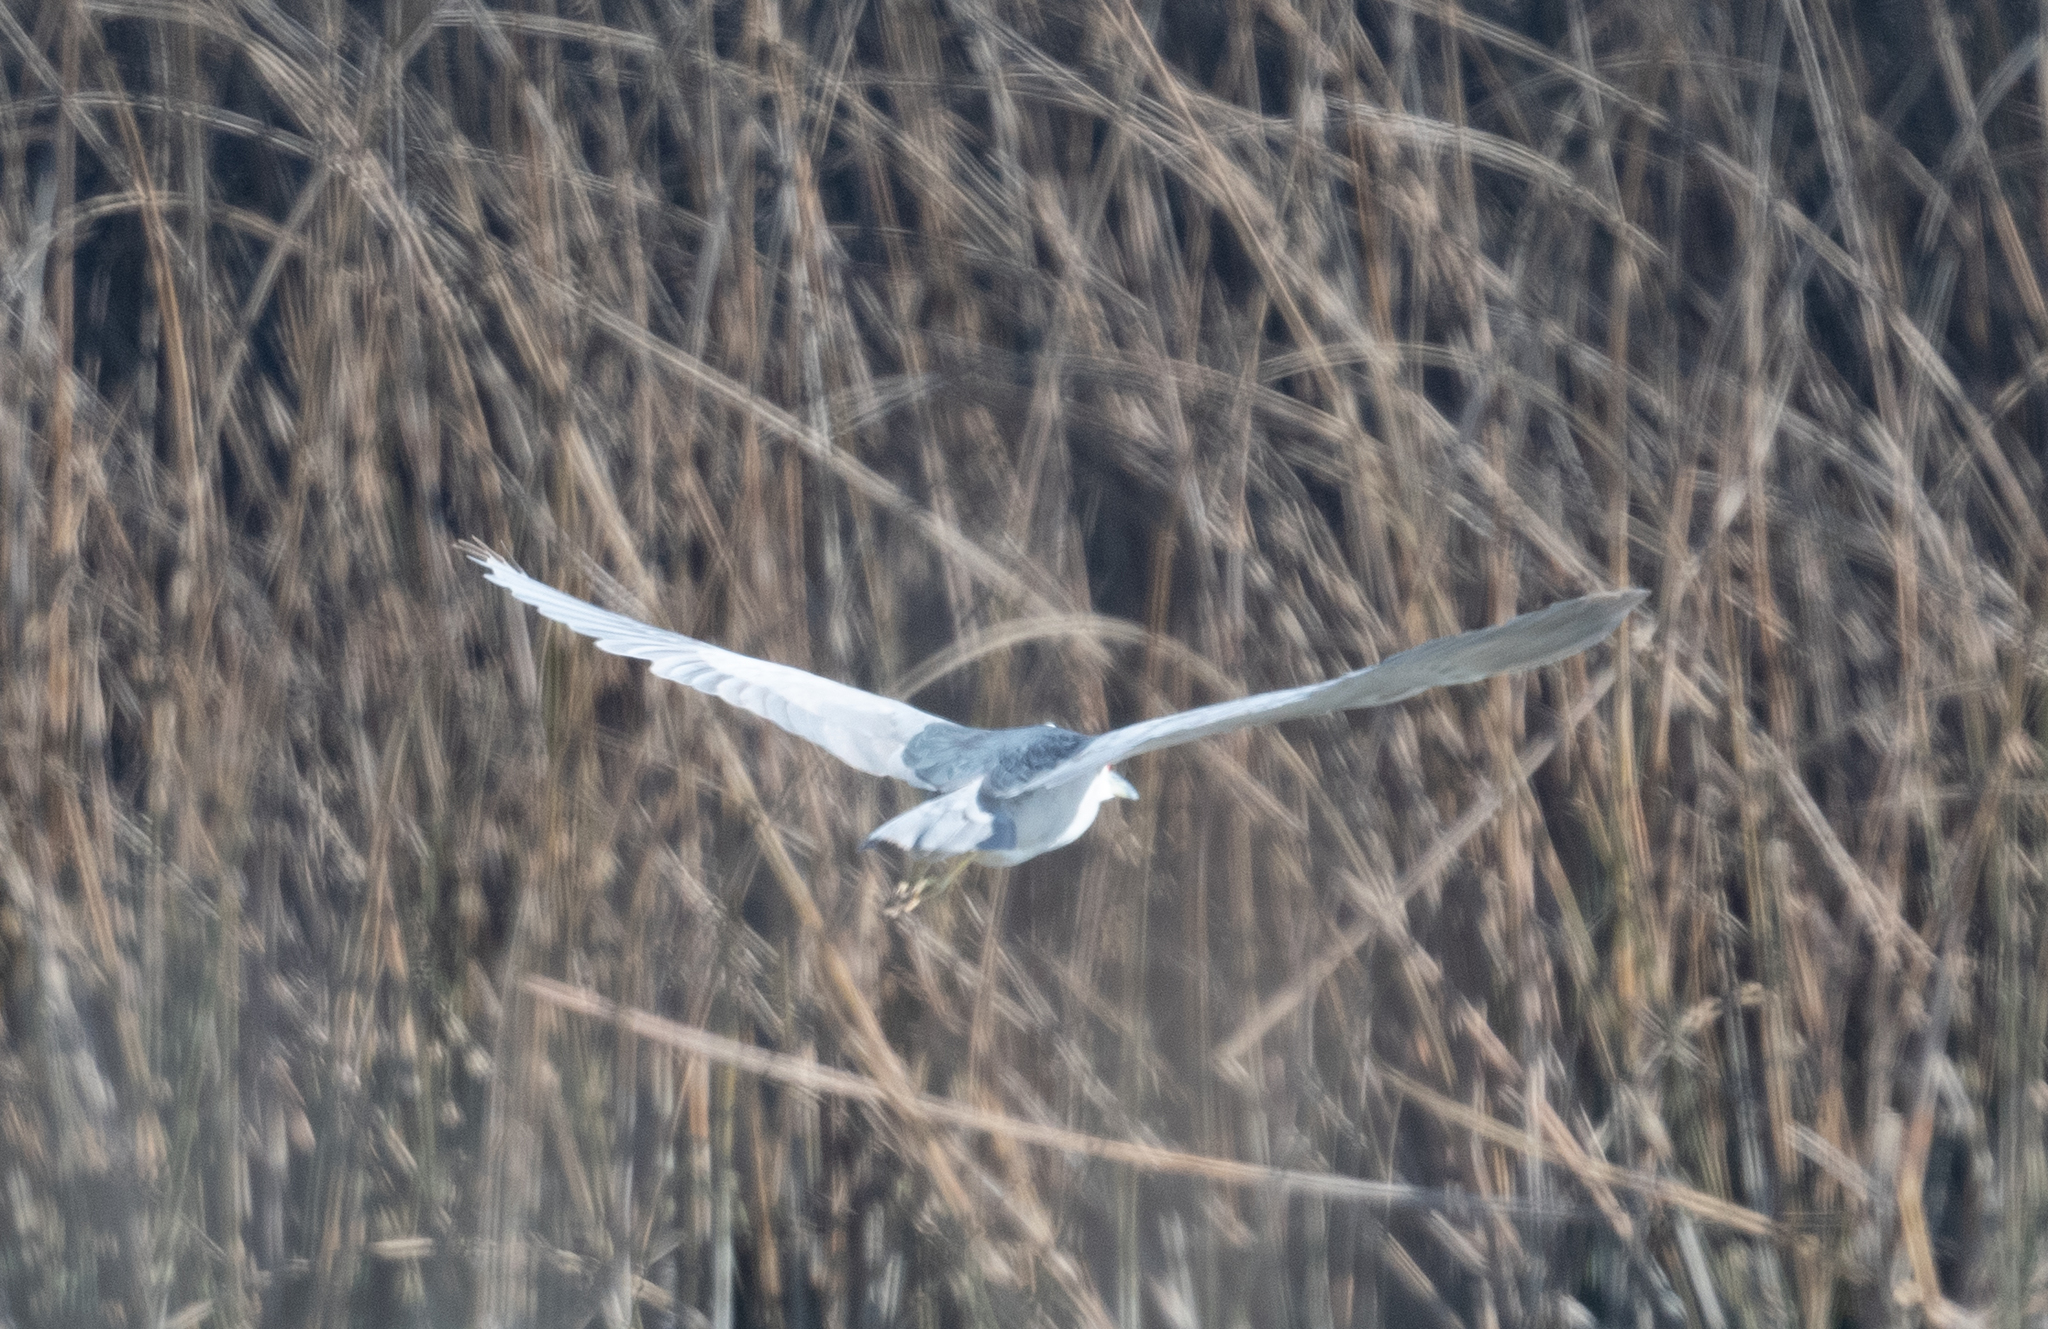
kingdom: Animalia
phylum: Chordata
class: Aves
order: Pelecaniformes
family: Ardeidae
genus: Nycticorax
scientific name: Nycticorax nycticorax
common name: Black-crowned night heron
